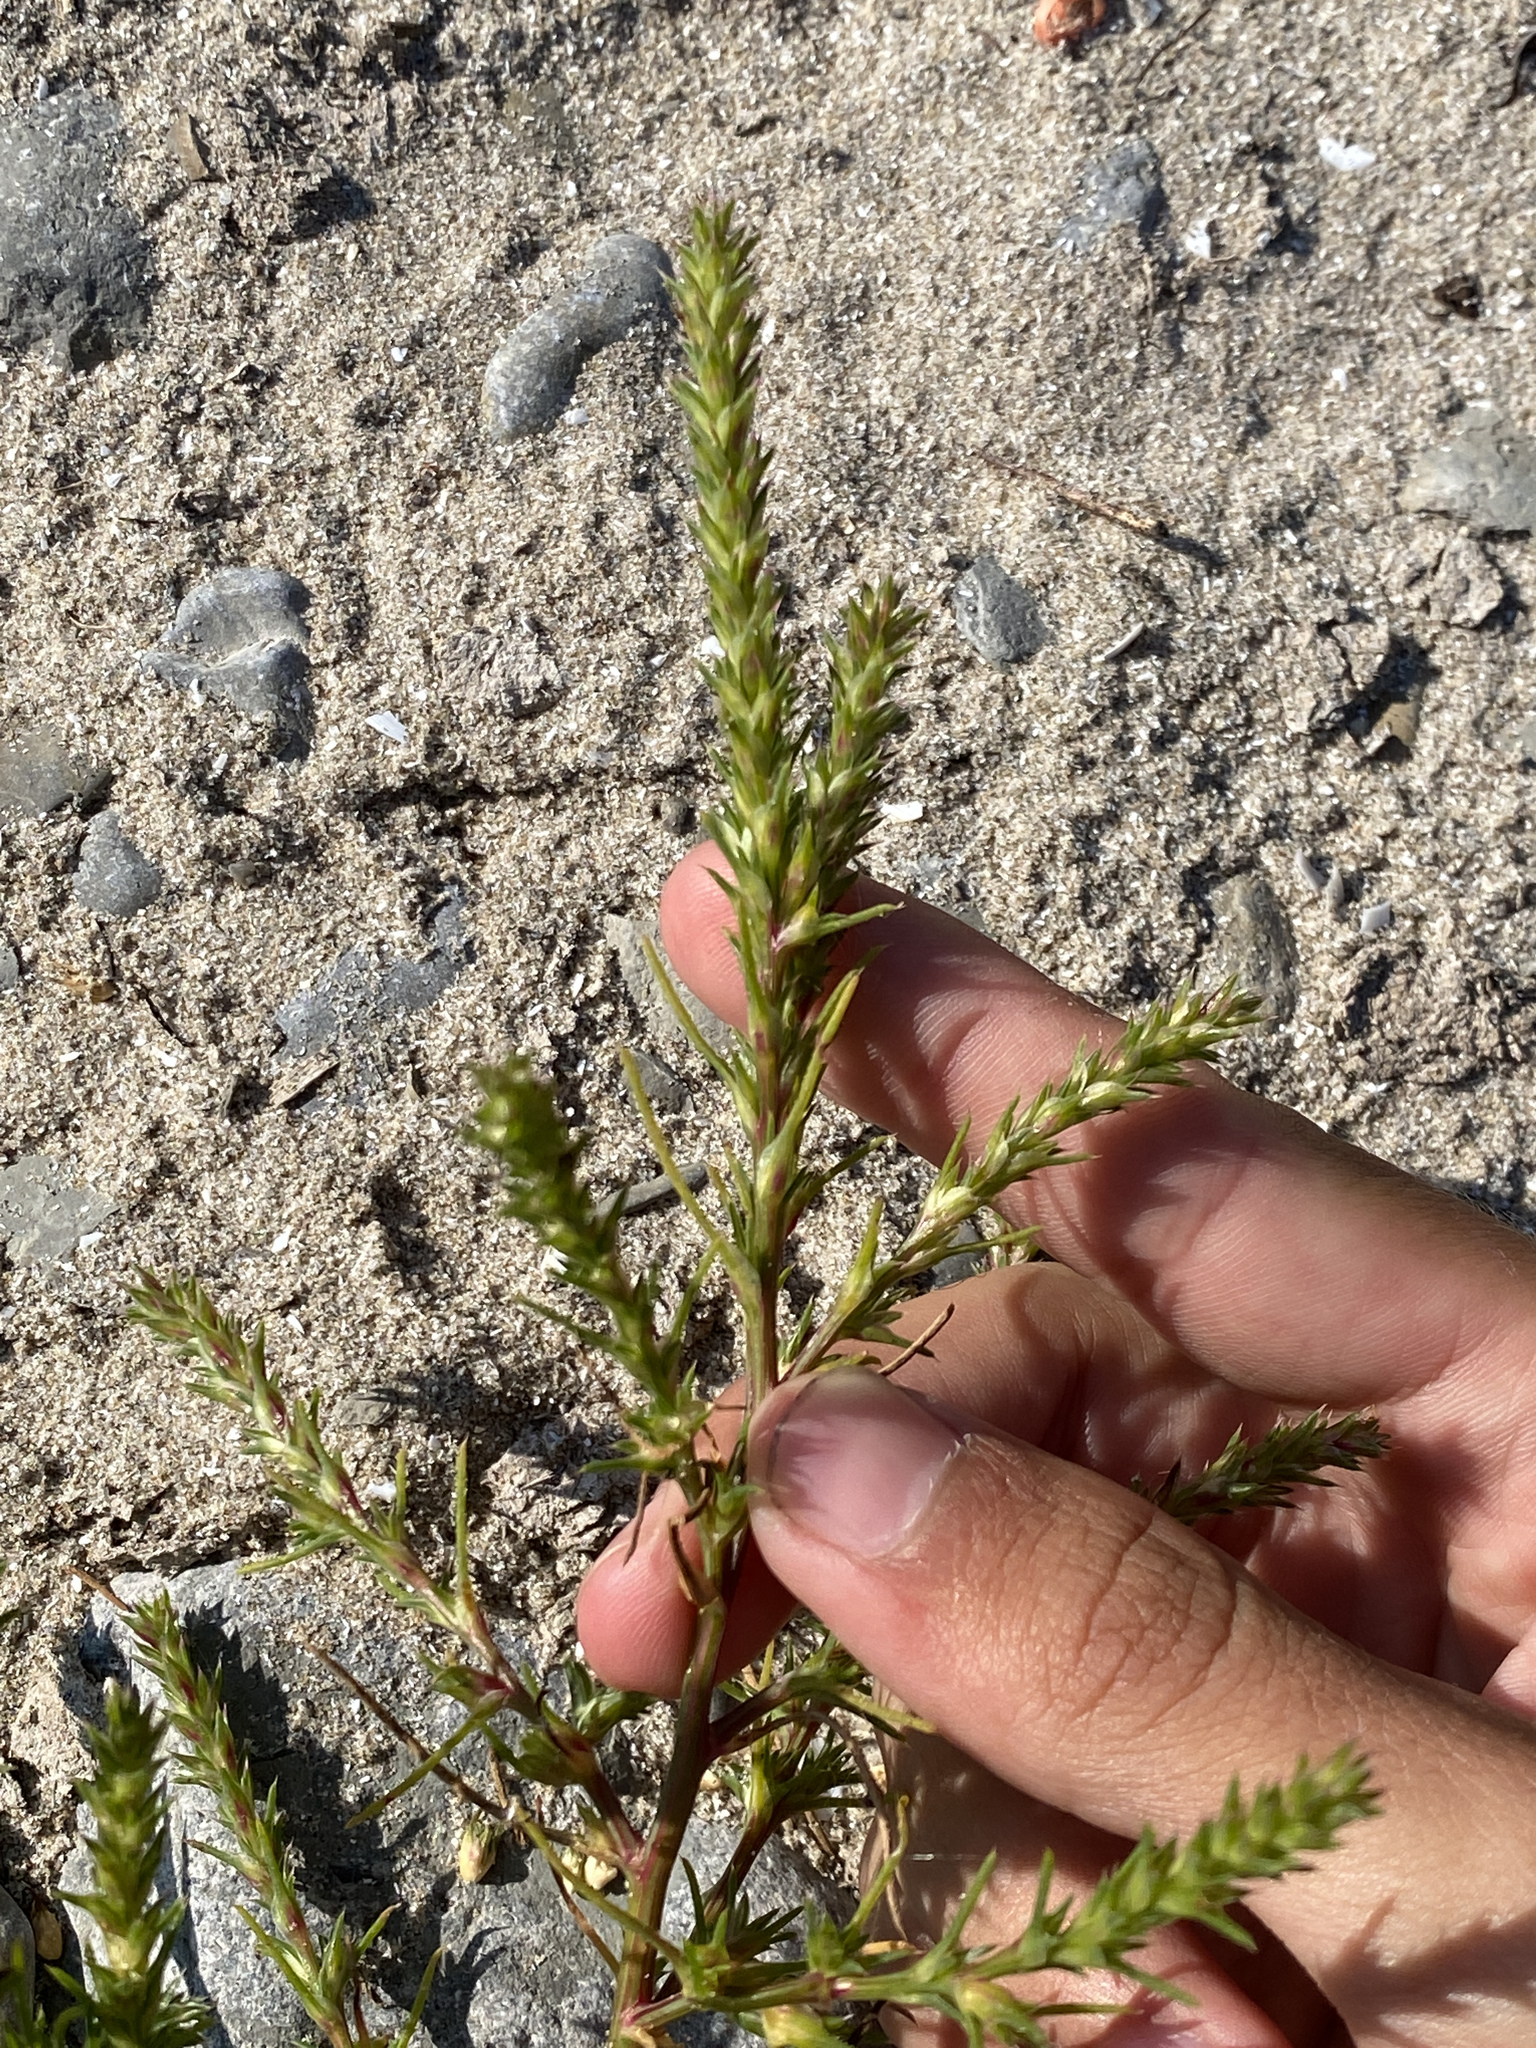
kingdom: Plantae
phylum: Tracheophyta
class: Magnoliopsida
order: Caryophyllales
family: Amaranthaceae
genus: Salsola
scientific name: Salsola collina
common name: Tumbleweed
